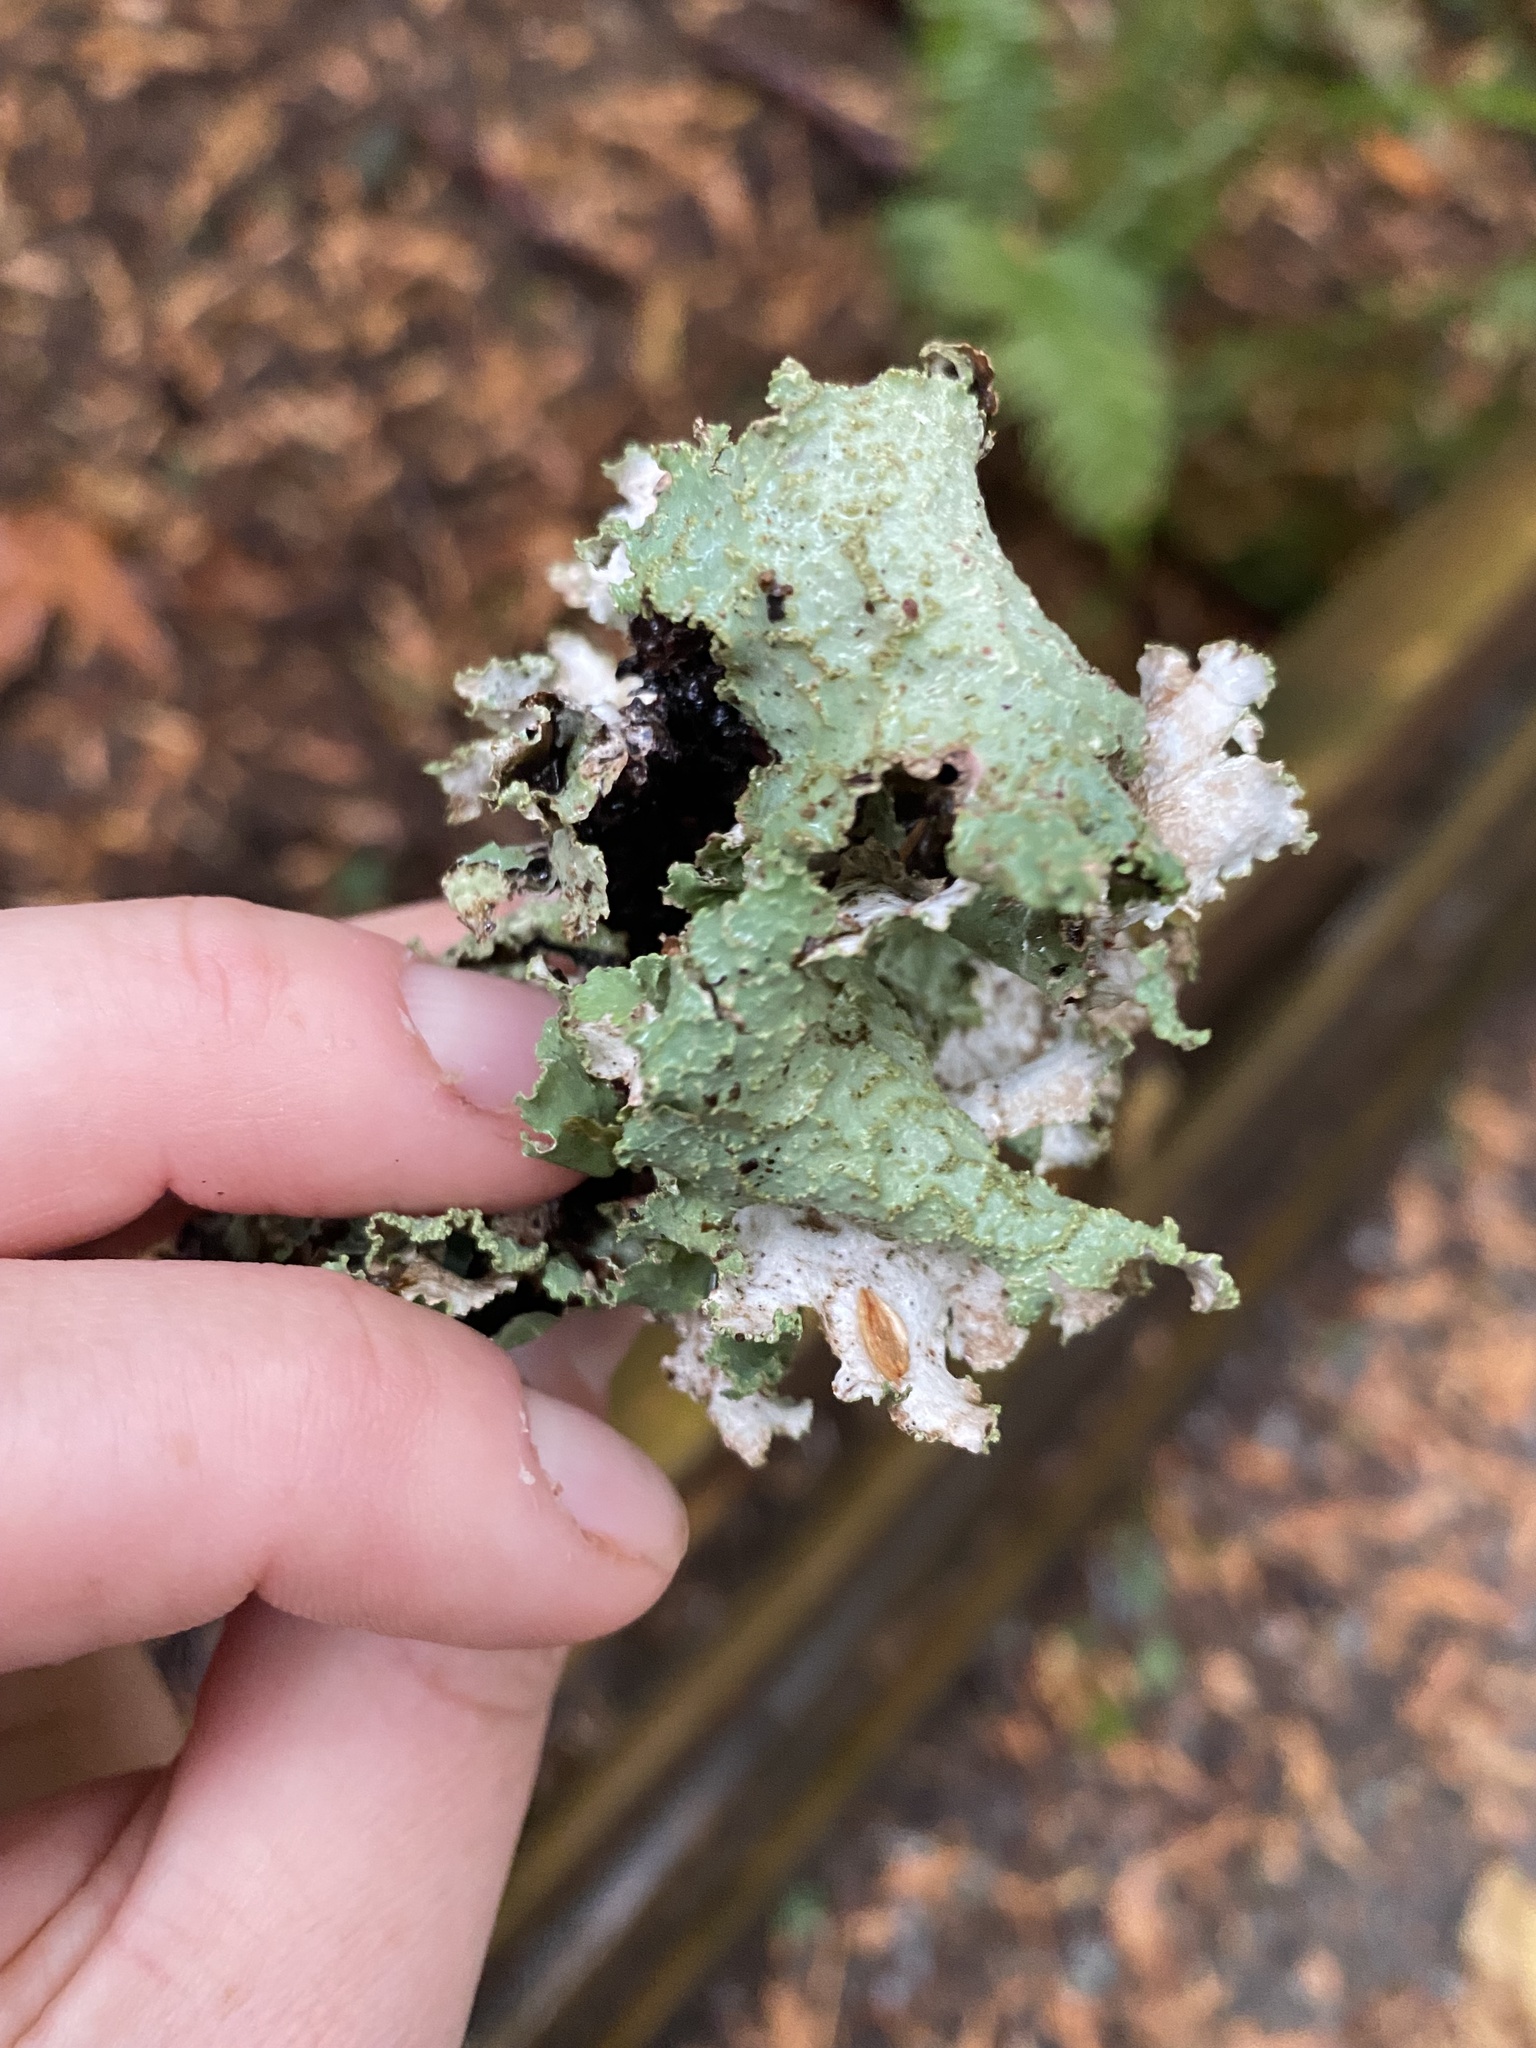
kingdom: Fungi
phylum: Ascomycota
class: Lecanoromycetes
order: Lecanorales
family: Parmeliaceae
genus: Platismatia
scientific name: Platismatia glauca
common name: Varied rag lichen
